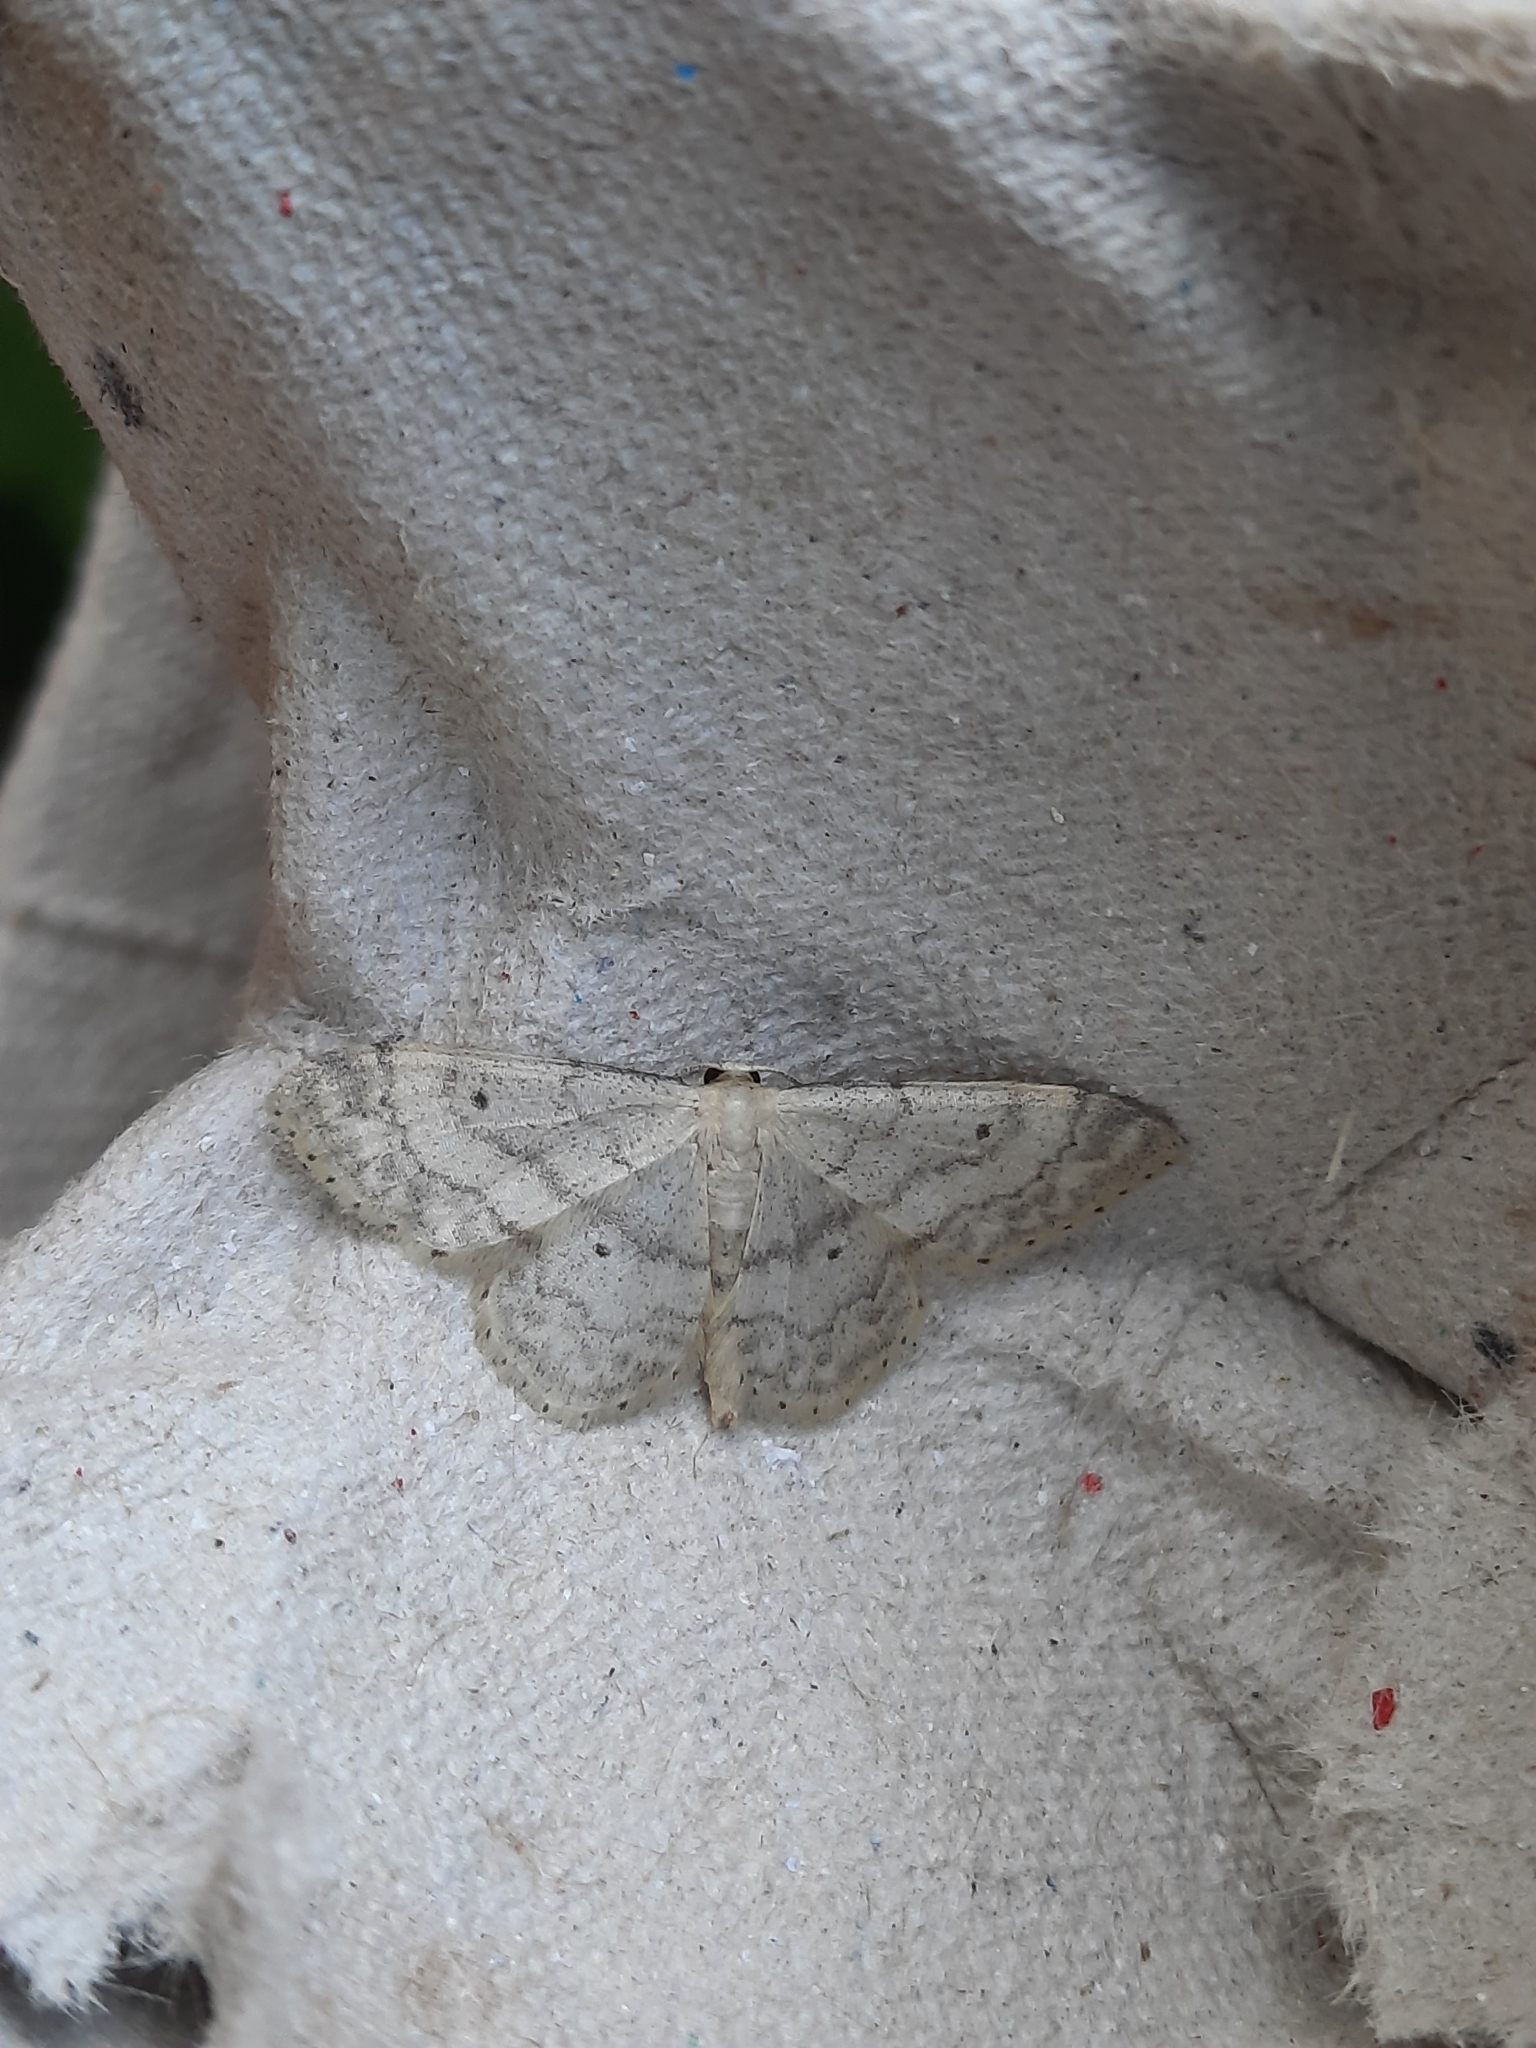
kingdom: Animalia
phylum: Arthropoda
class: Insecta
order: Lepidoptera
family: Geometridae
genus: Idaea
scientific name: Idaea biselata
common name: Small fan-footed wave
